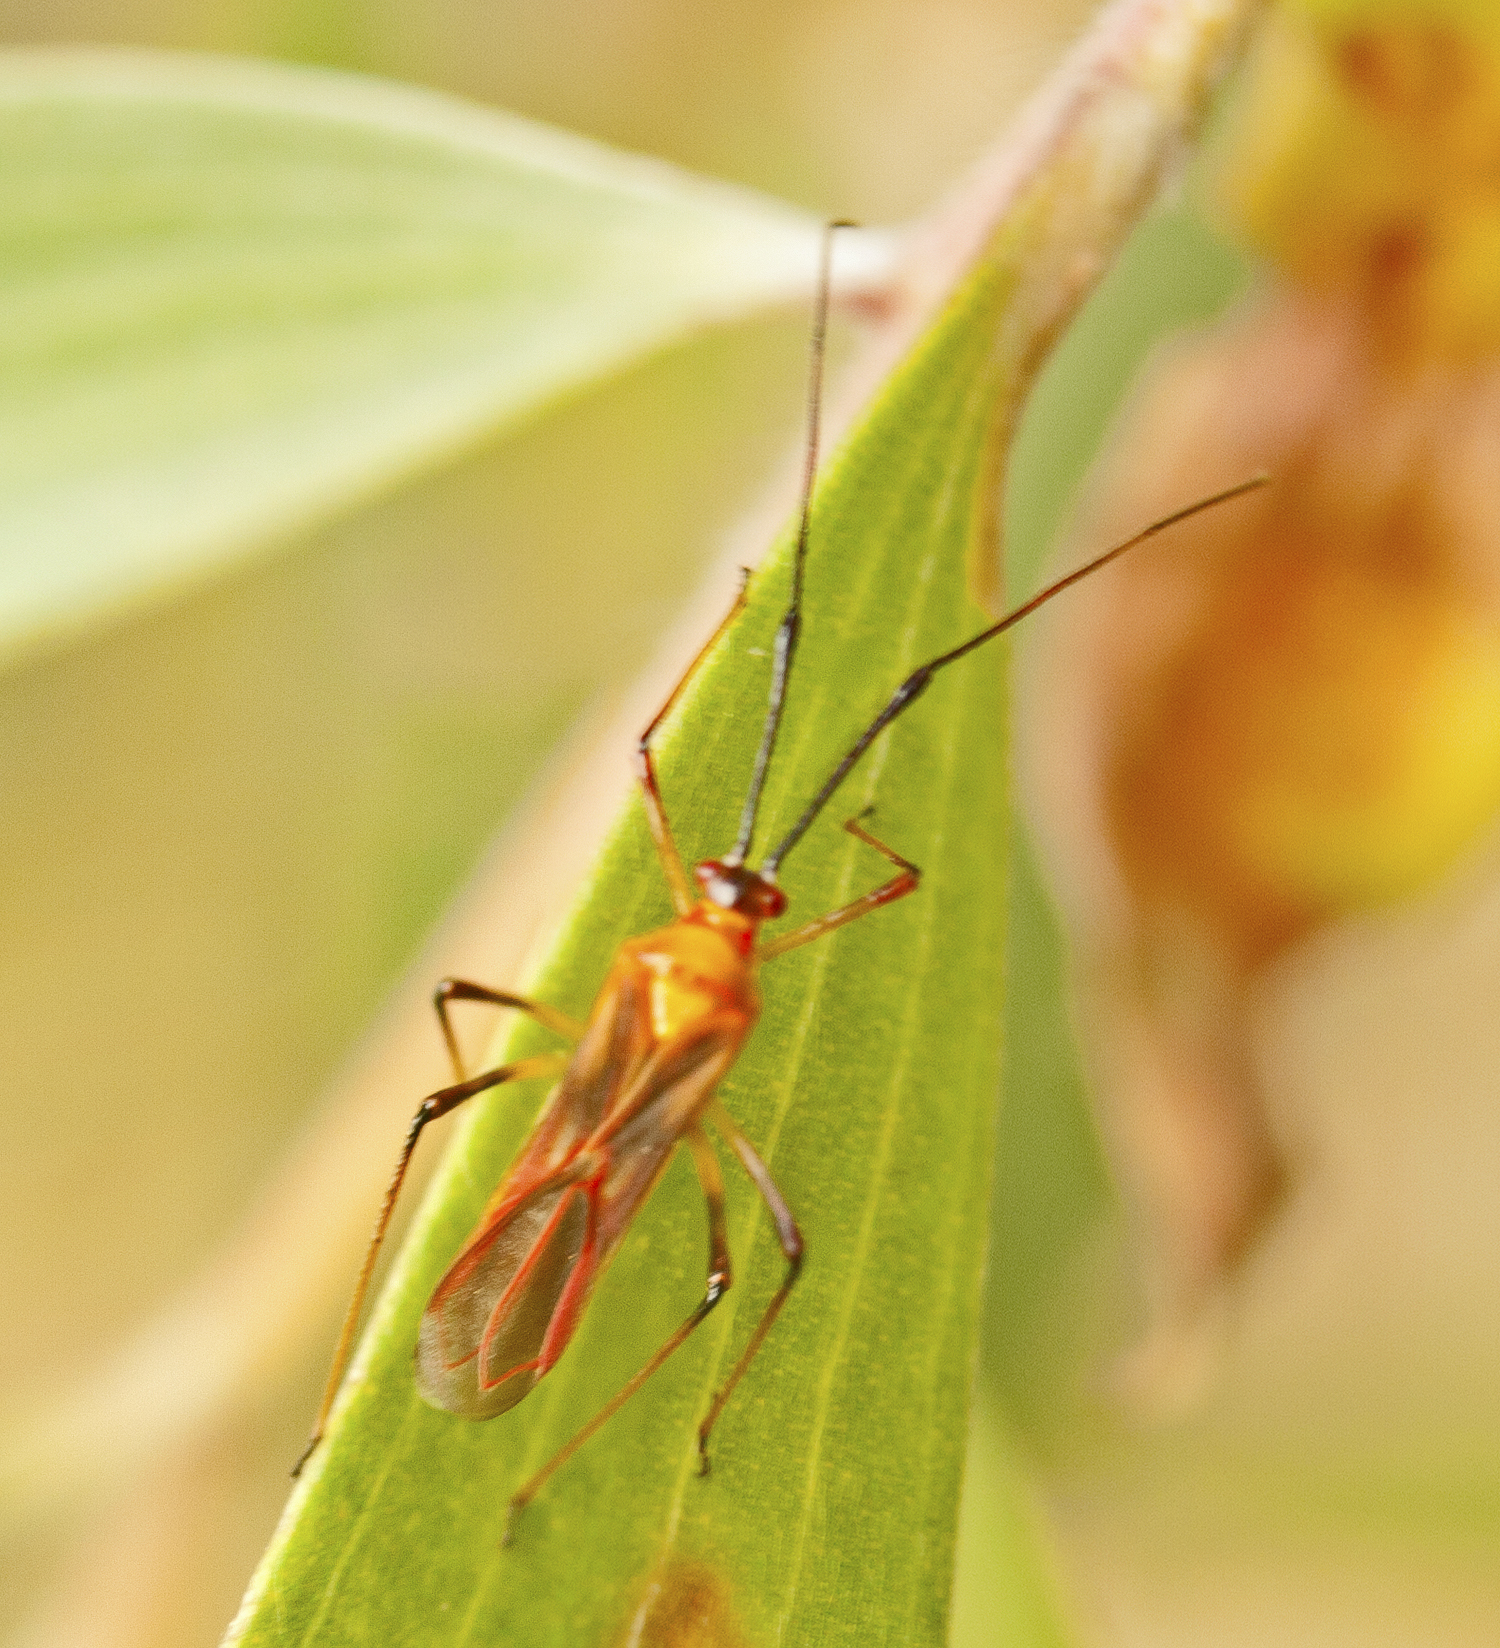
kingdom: Animalia
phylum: Arthropoda
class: Insecta
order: Hemiptera
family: Miridae
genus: Ragwelellus
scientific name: Ragwelellus suspectus
